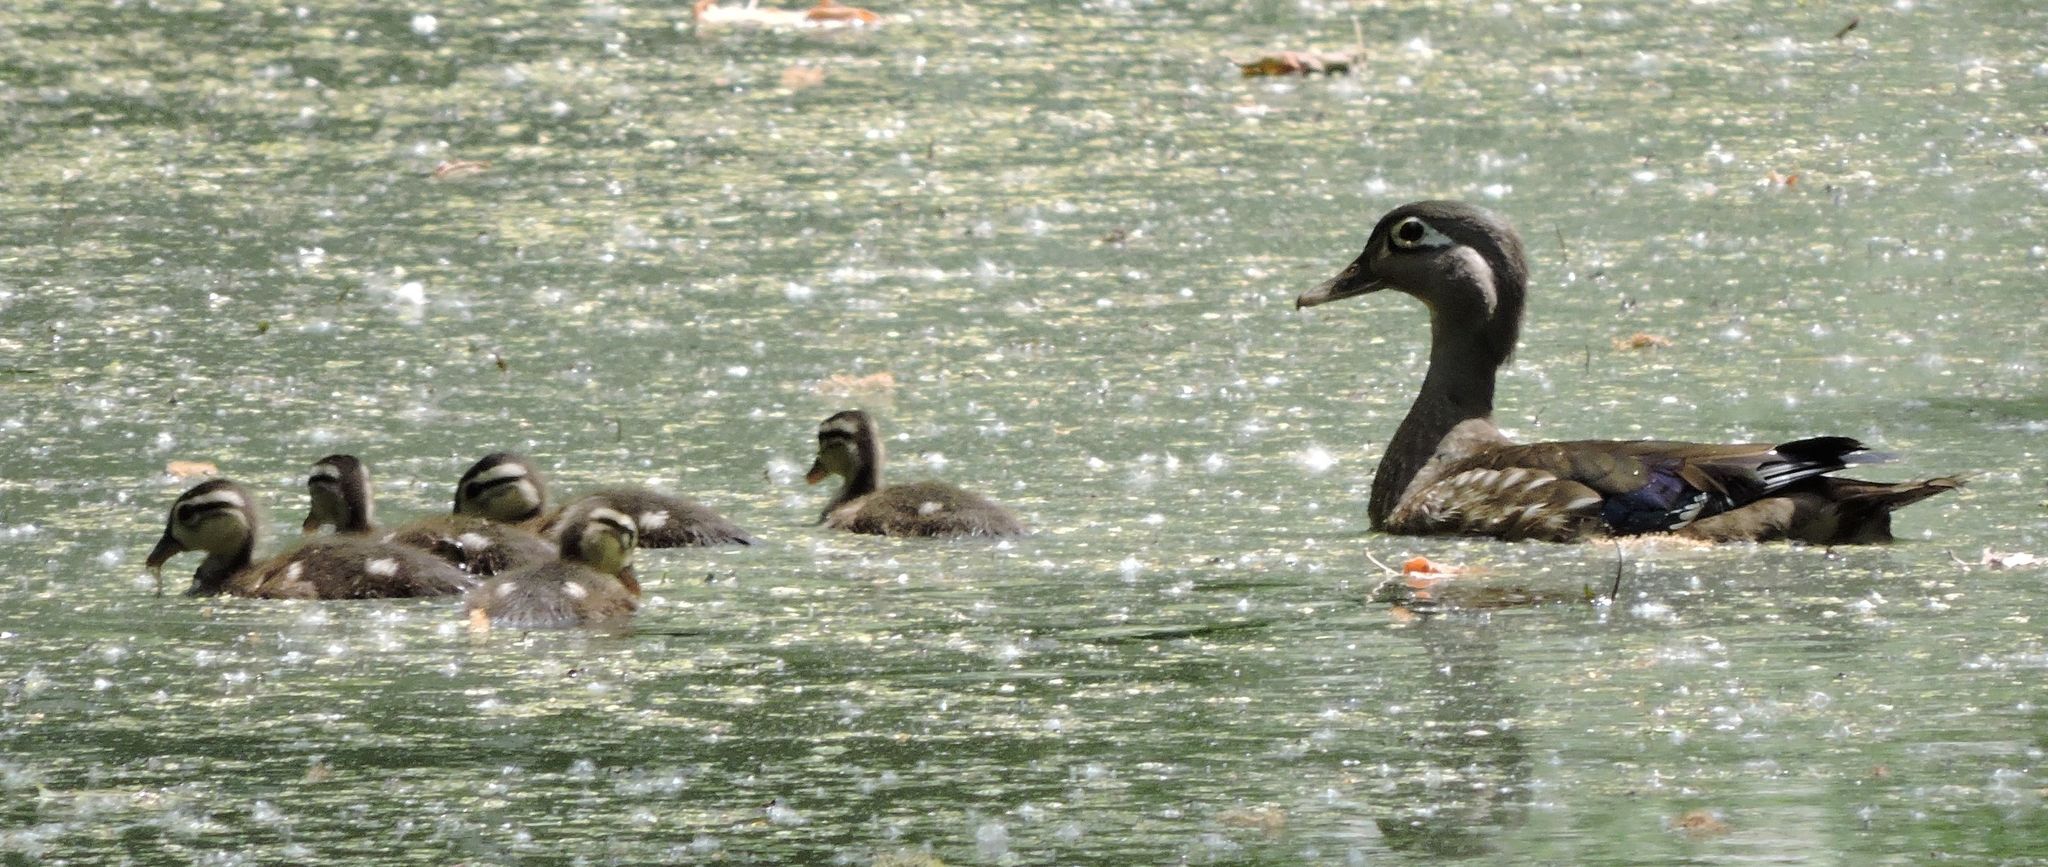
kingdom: Animalia
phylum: Chordata
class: Aves
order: Anseriformes
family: Anatidae
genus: Aix
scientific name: Aix sponsa
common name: Wood duck
